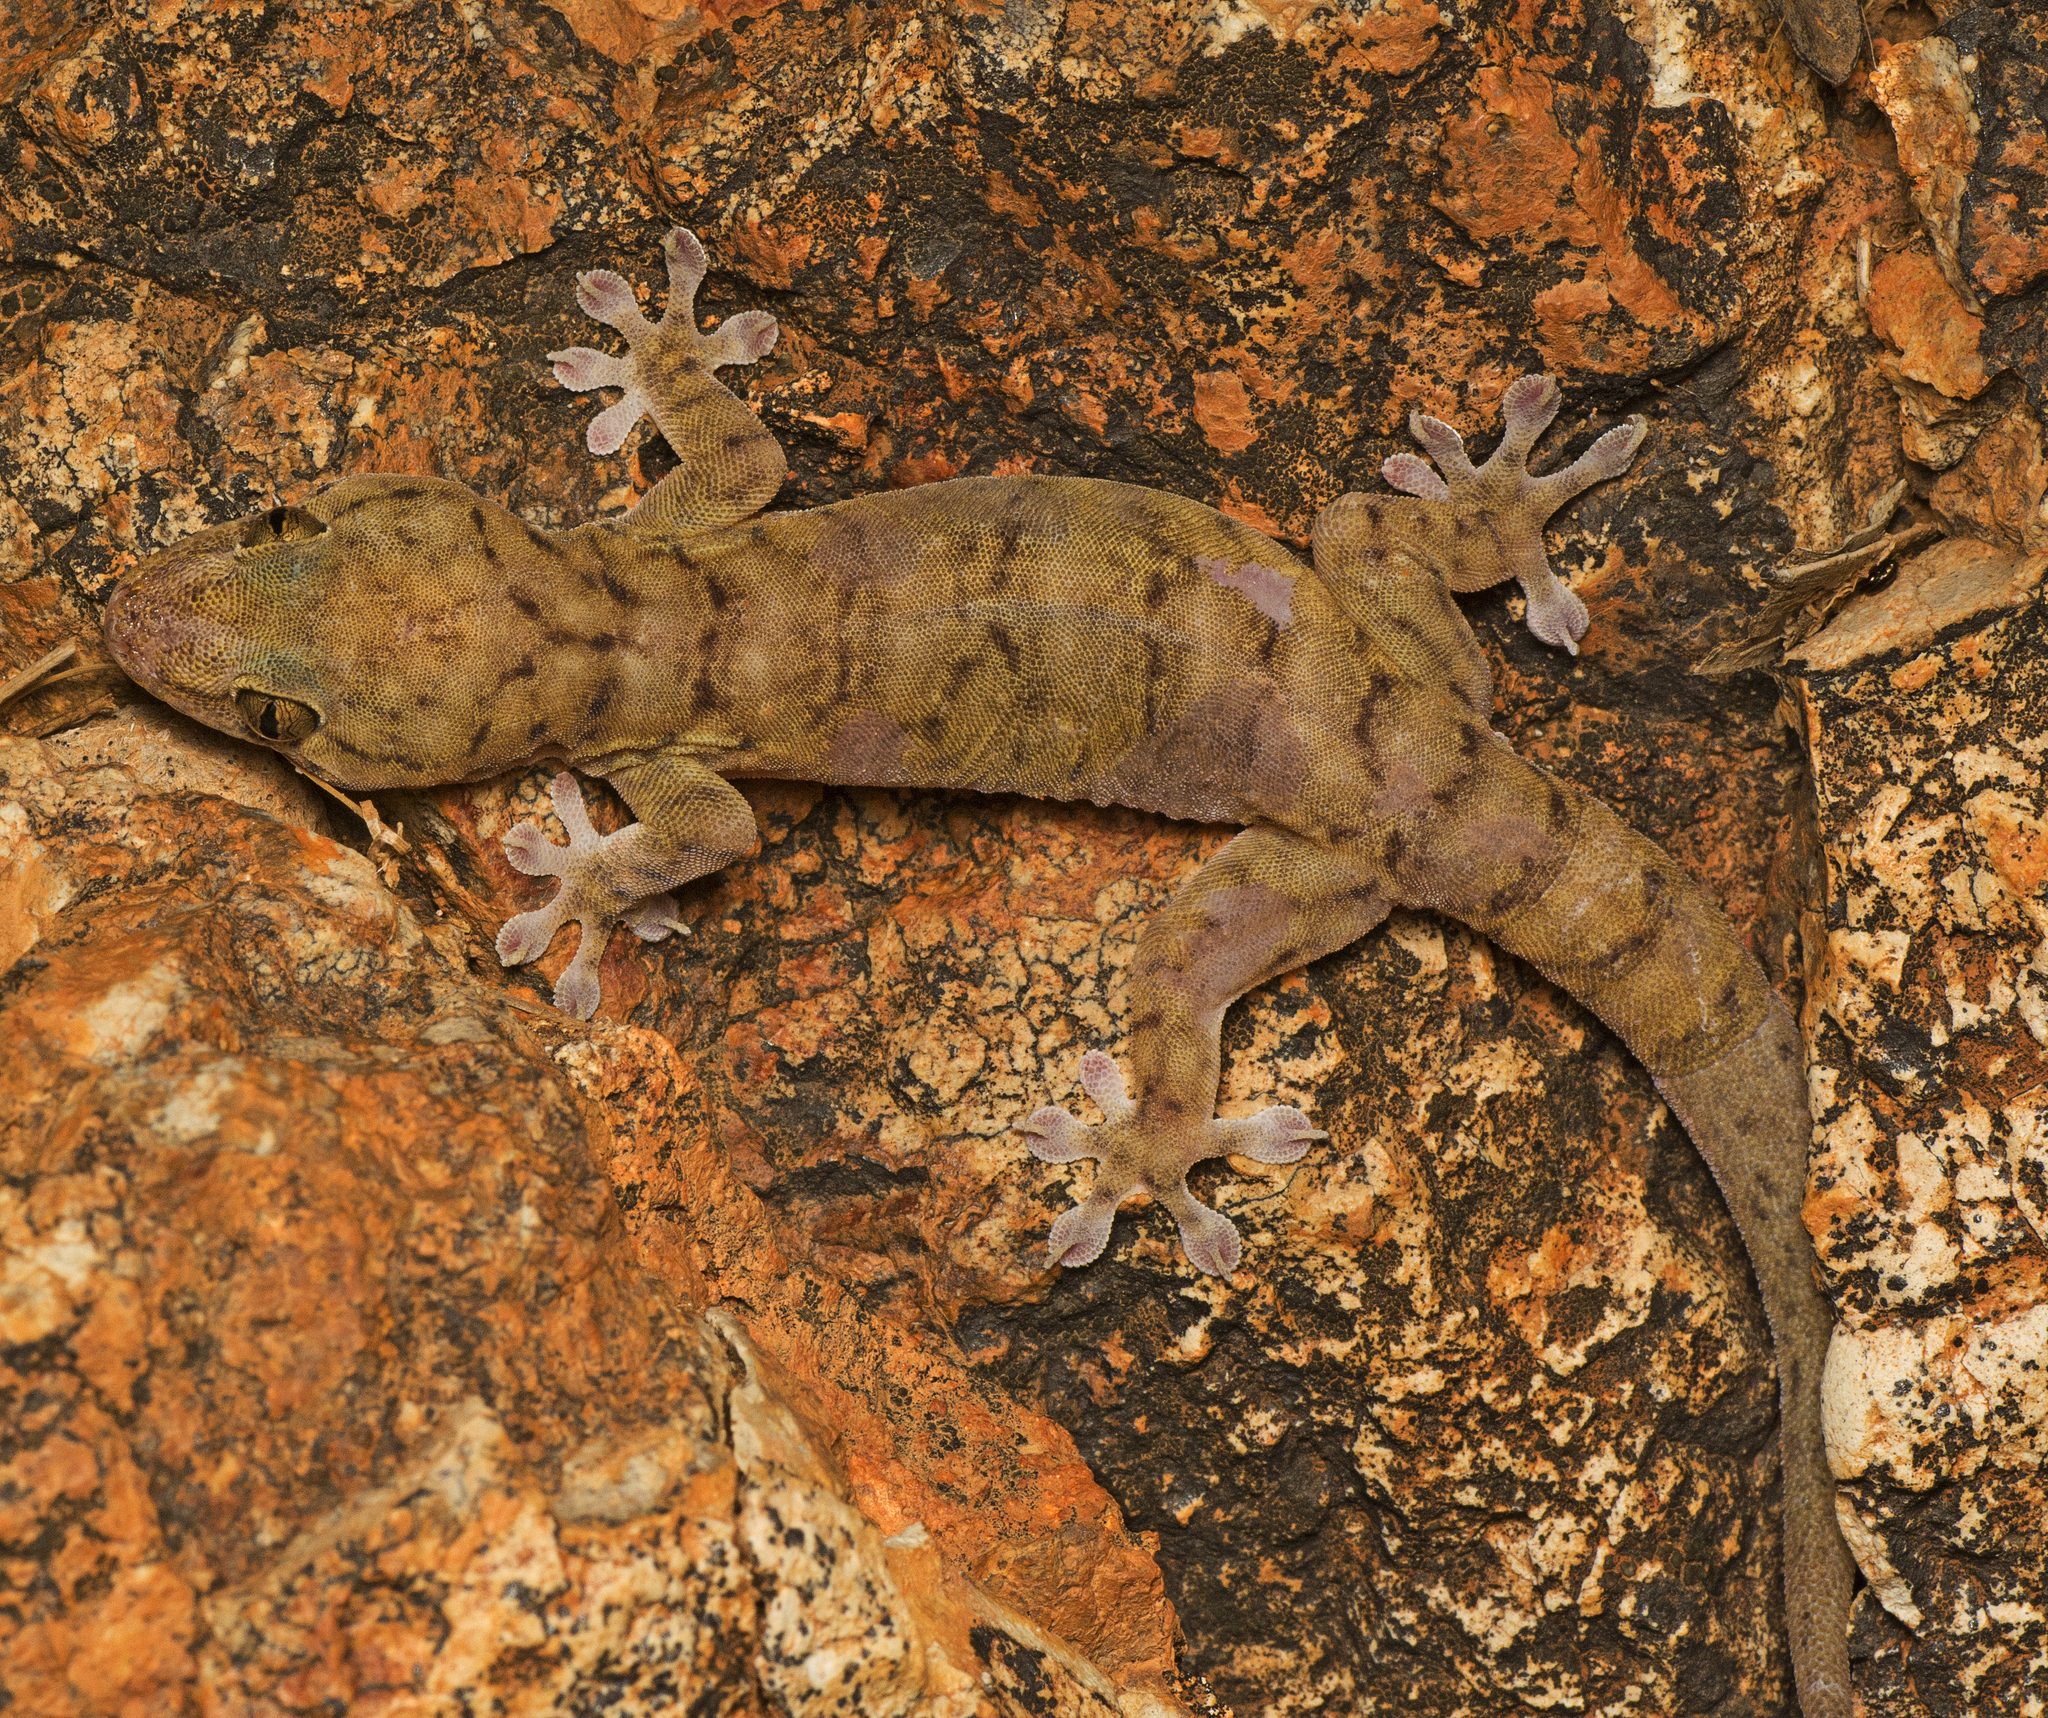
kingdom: Animalia
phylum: Chordata
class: Squamata
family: Gekkonidae
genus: Gehyra
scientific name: Gehyra robusta
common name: Robust dtella
